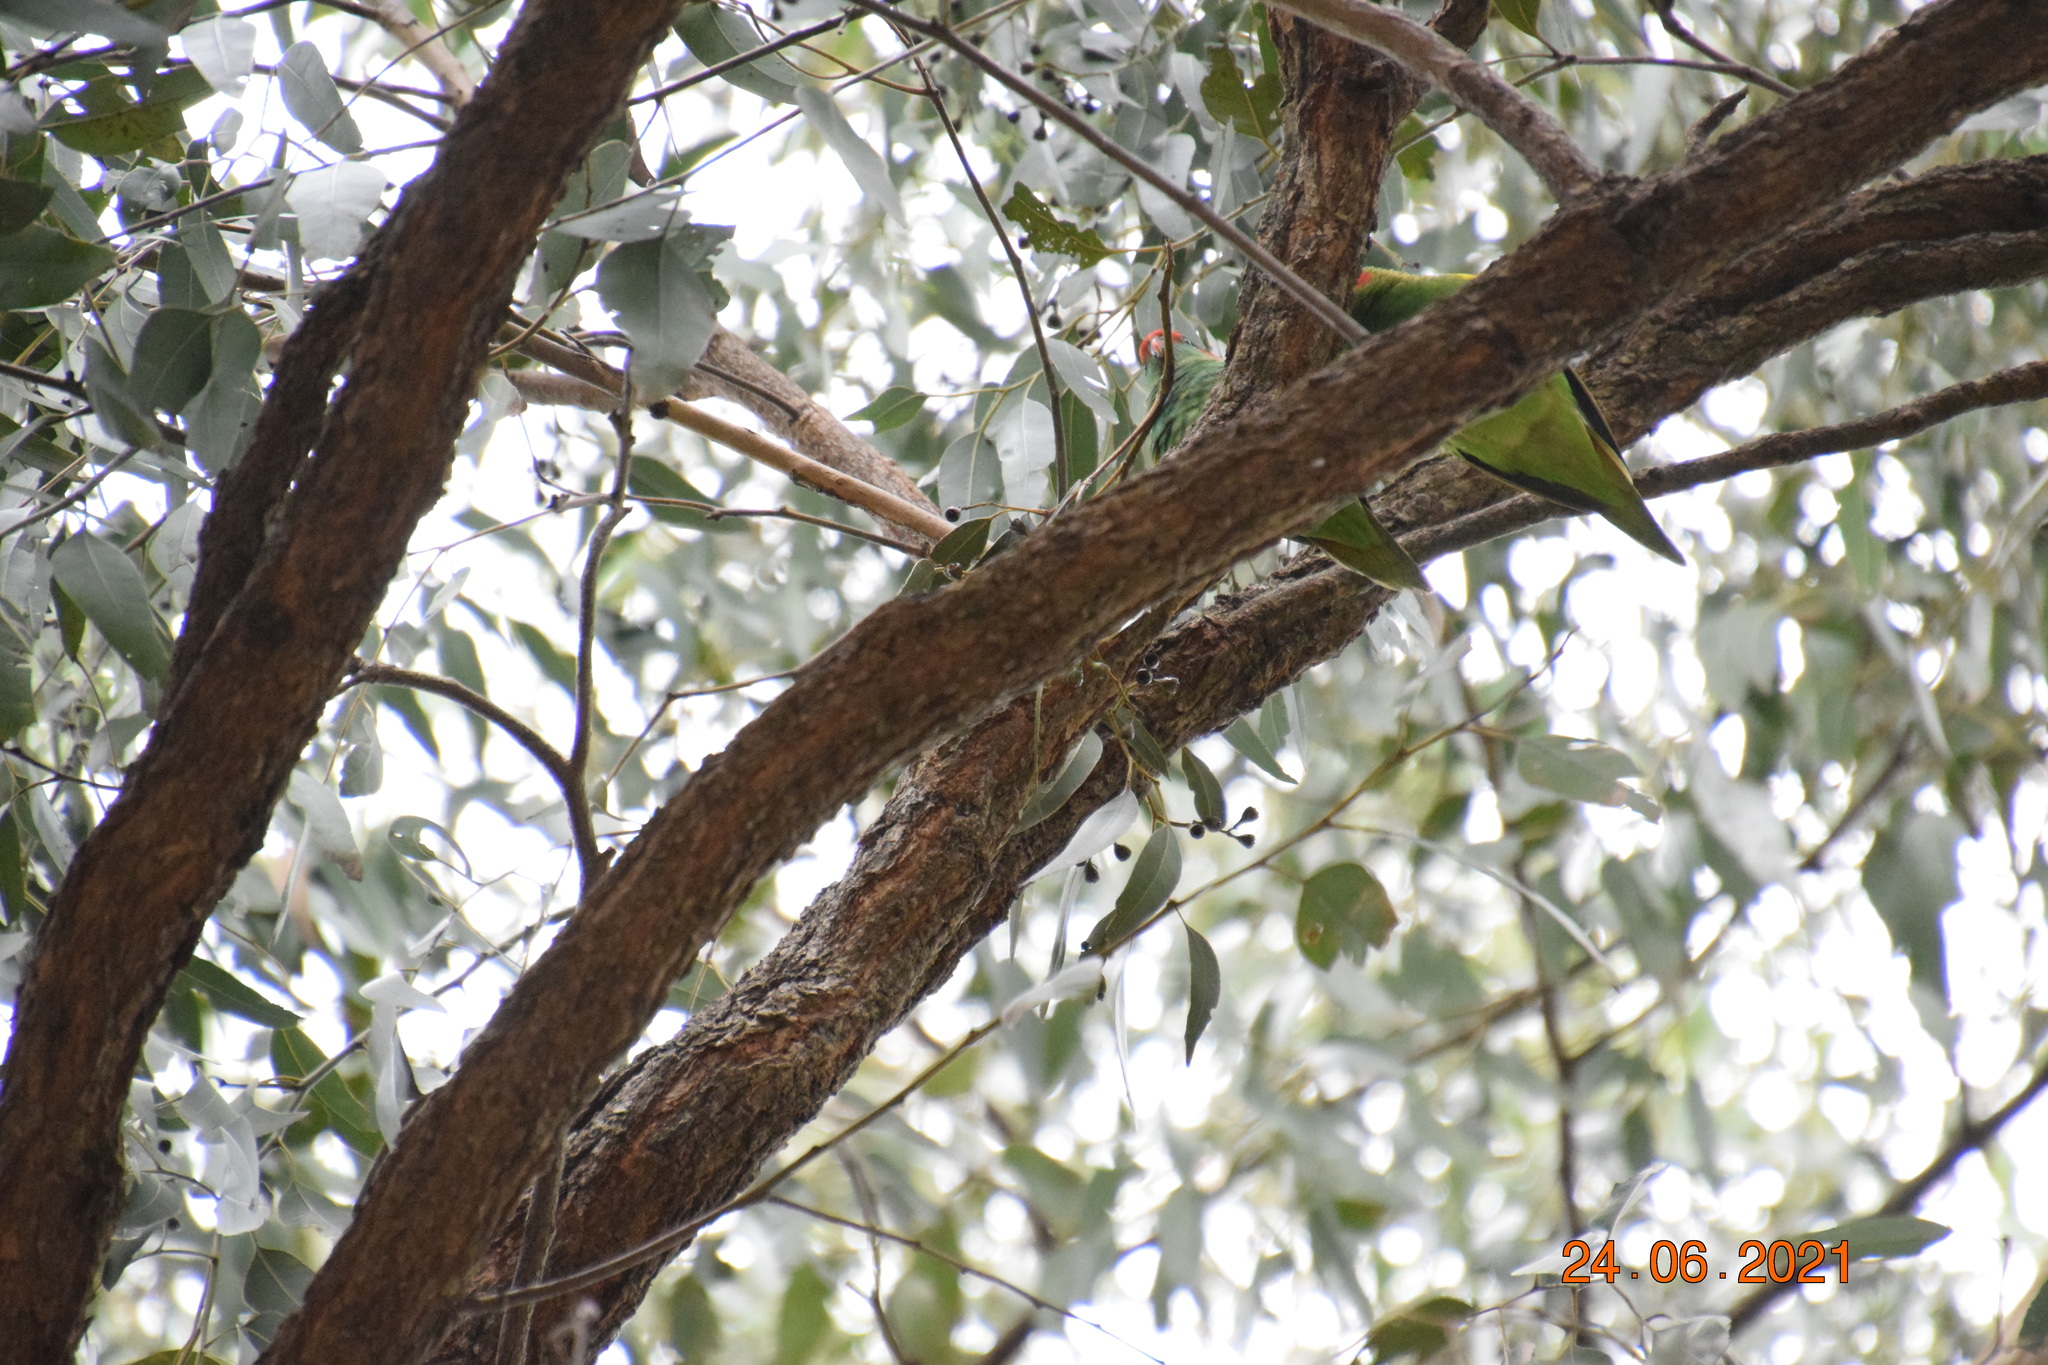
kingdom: Animalia
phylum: Chordata
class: Aves
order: Psittaciformes
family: Psittacidae
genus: Glossopsitta
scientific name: Glossopsitta concinna
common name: Musk lorikeet
